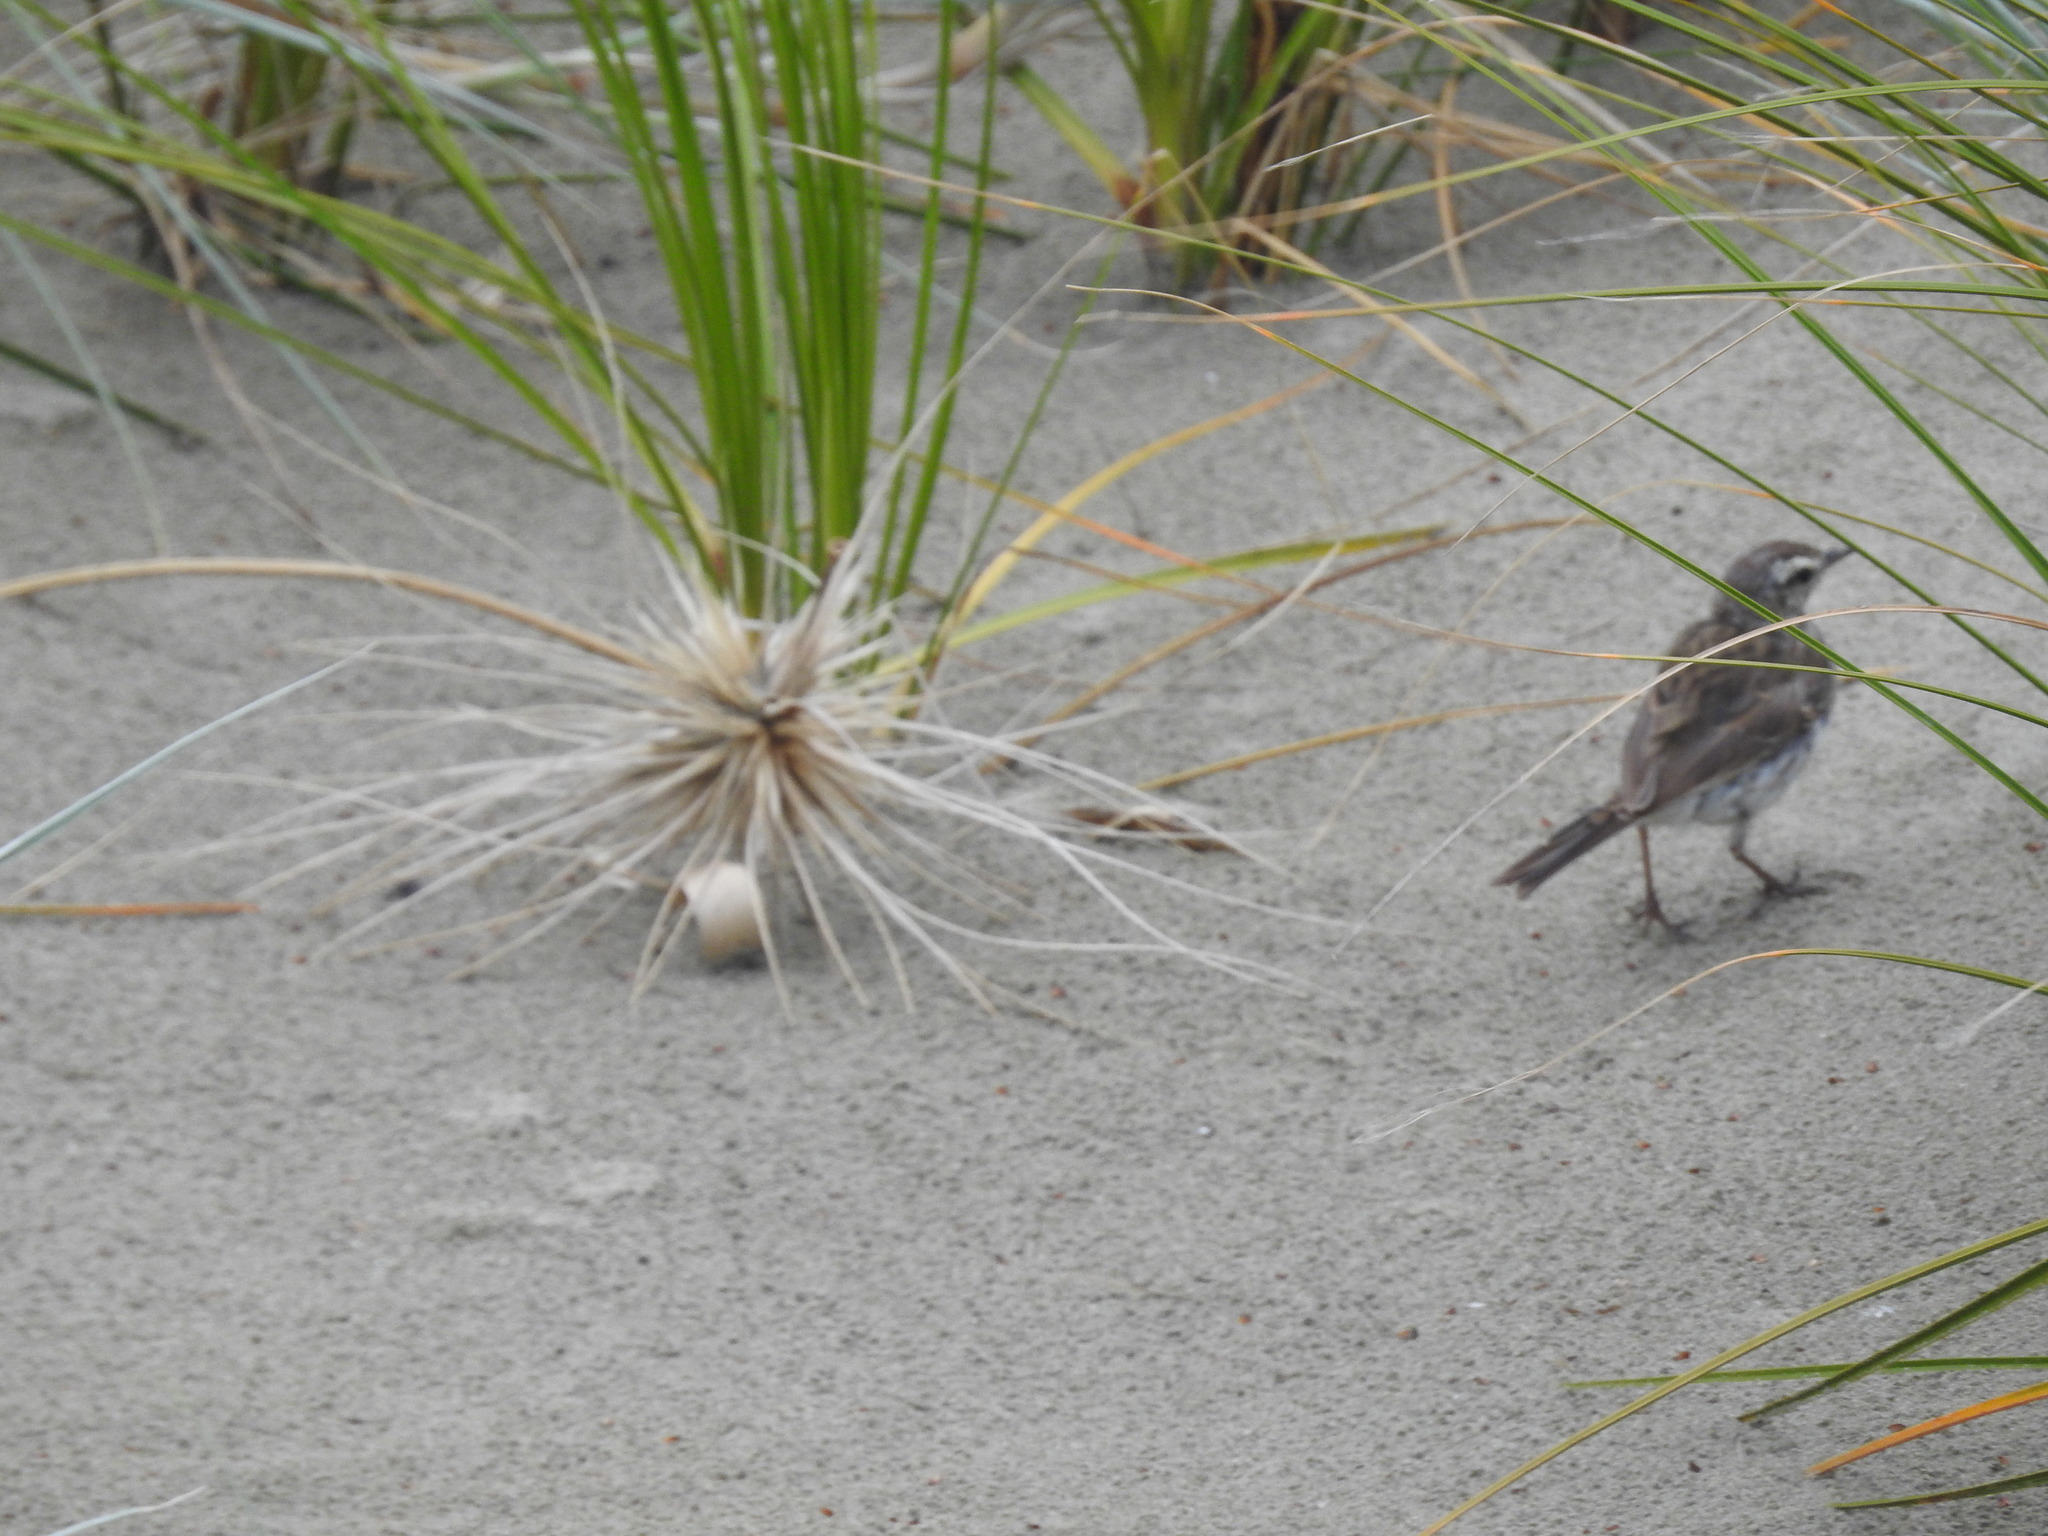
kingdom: Animalia
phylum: Chordata
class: Aves
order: Passeriformes
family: Motacillidae
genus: Anthus
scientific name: Anthus novaeseelandiae
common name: New zealand pipit
